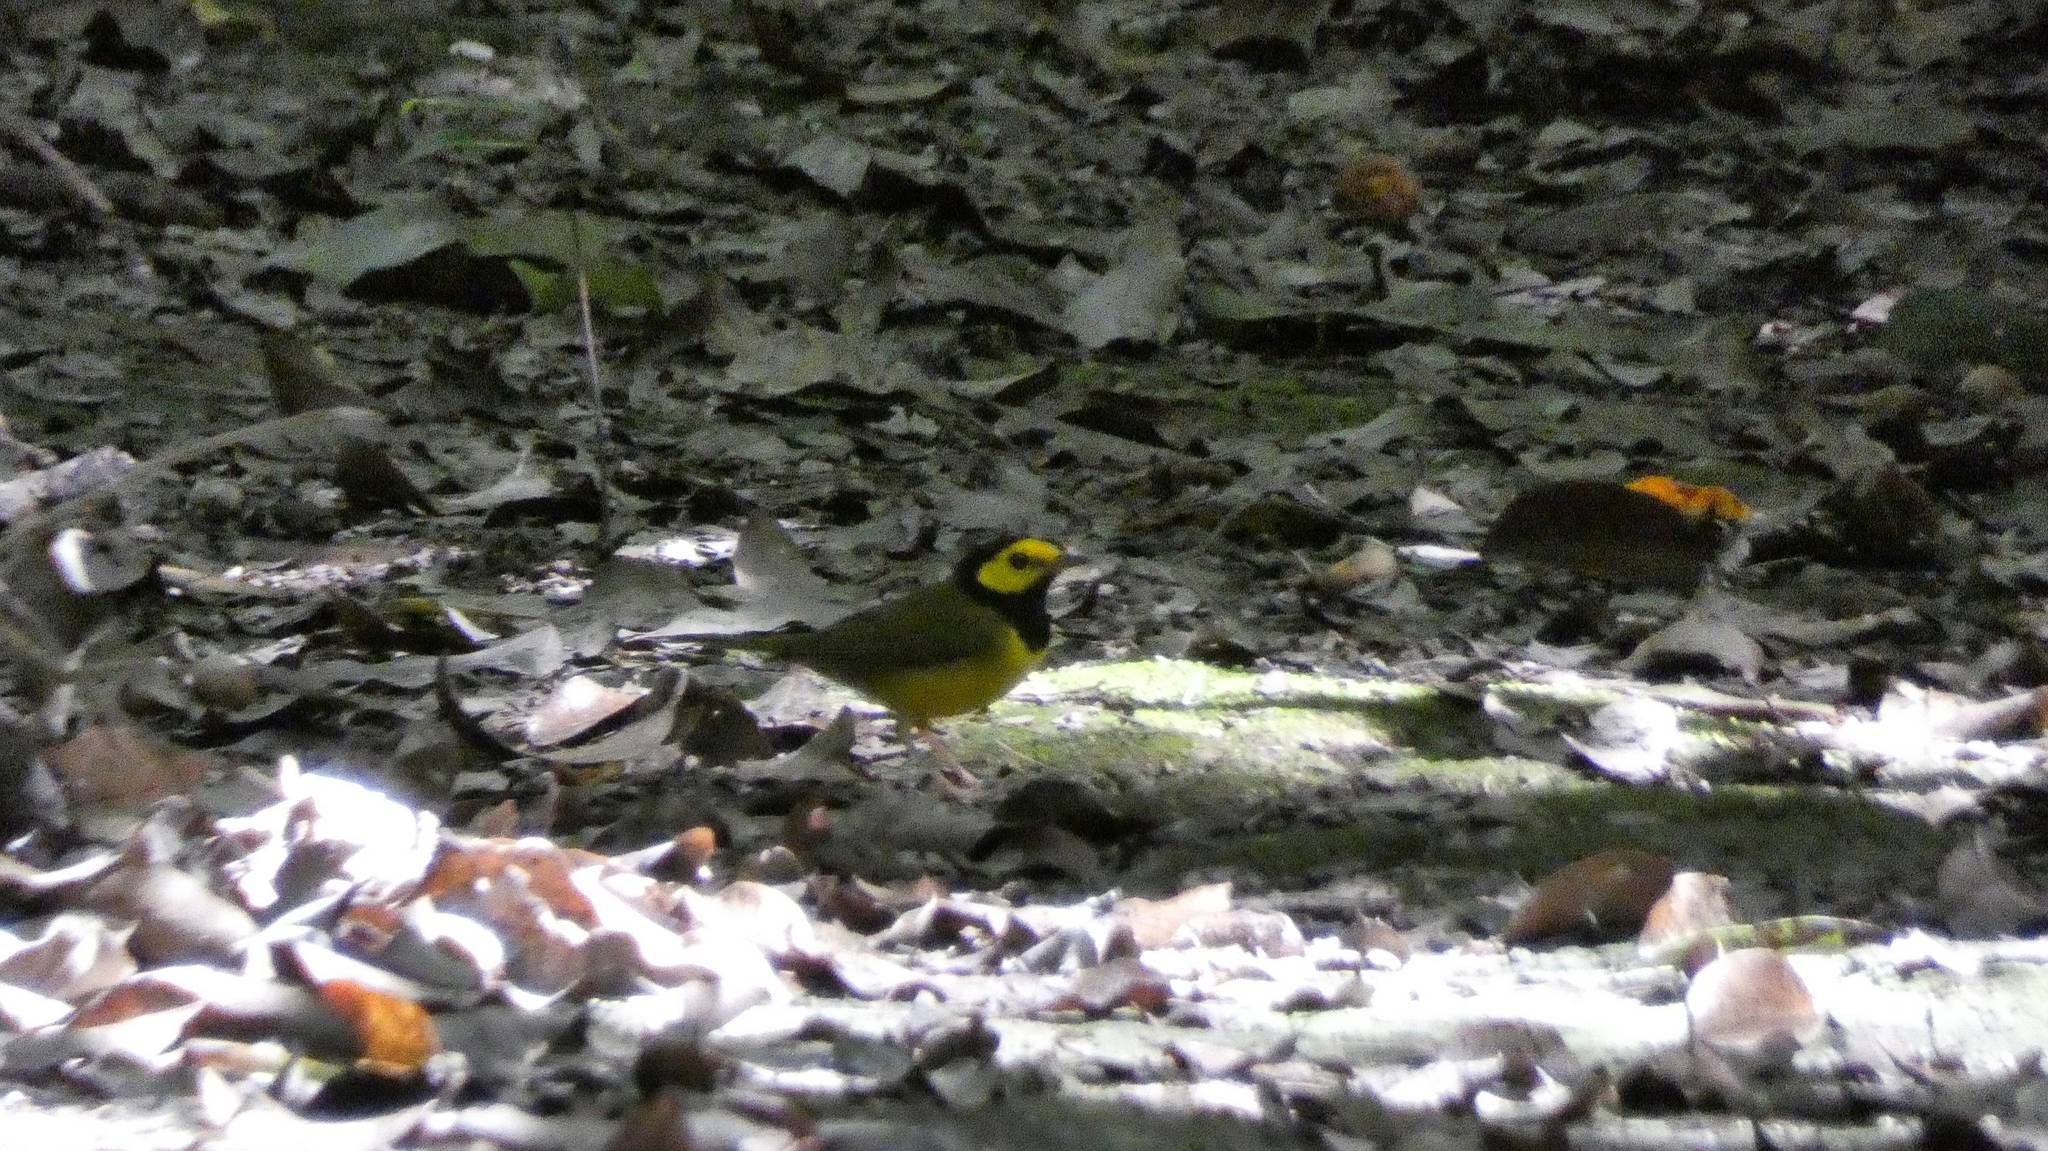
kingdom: Animalia
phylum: Chordata
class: Aves
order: Passeriformes
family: Parulidae
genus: Setophaga
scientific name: Setophaga citrina
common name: Hooded warbler
